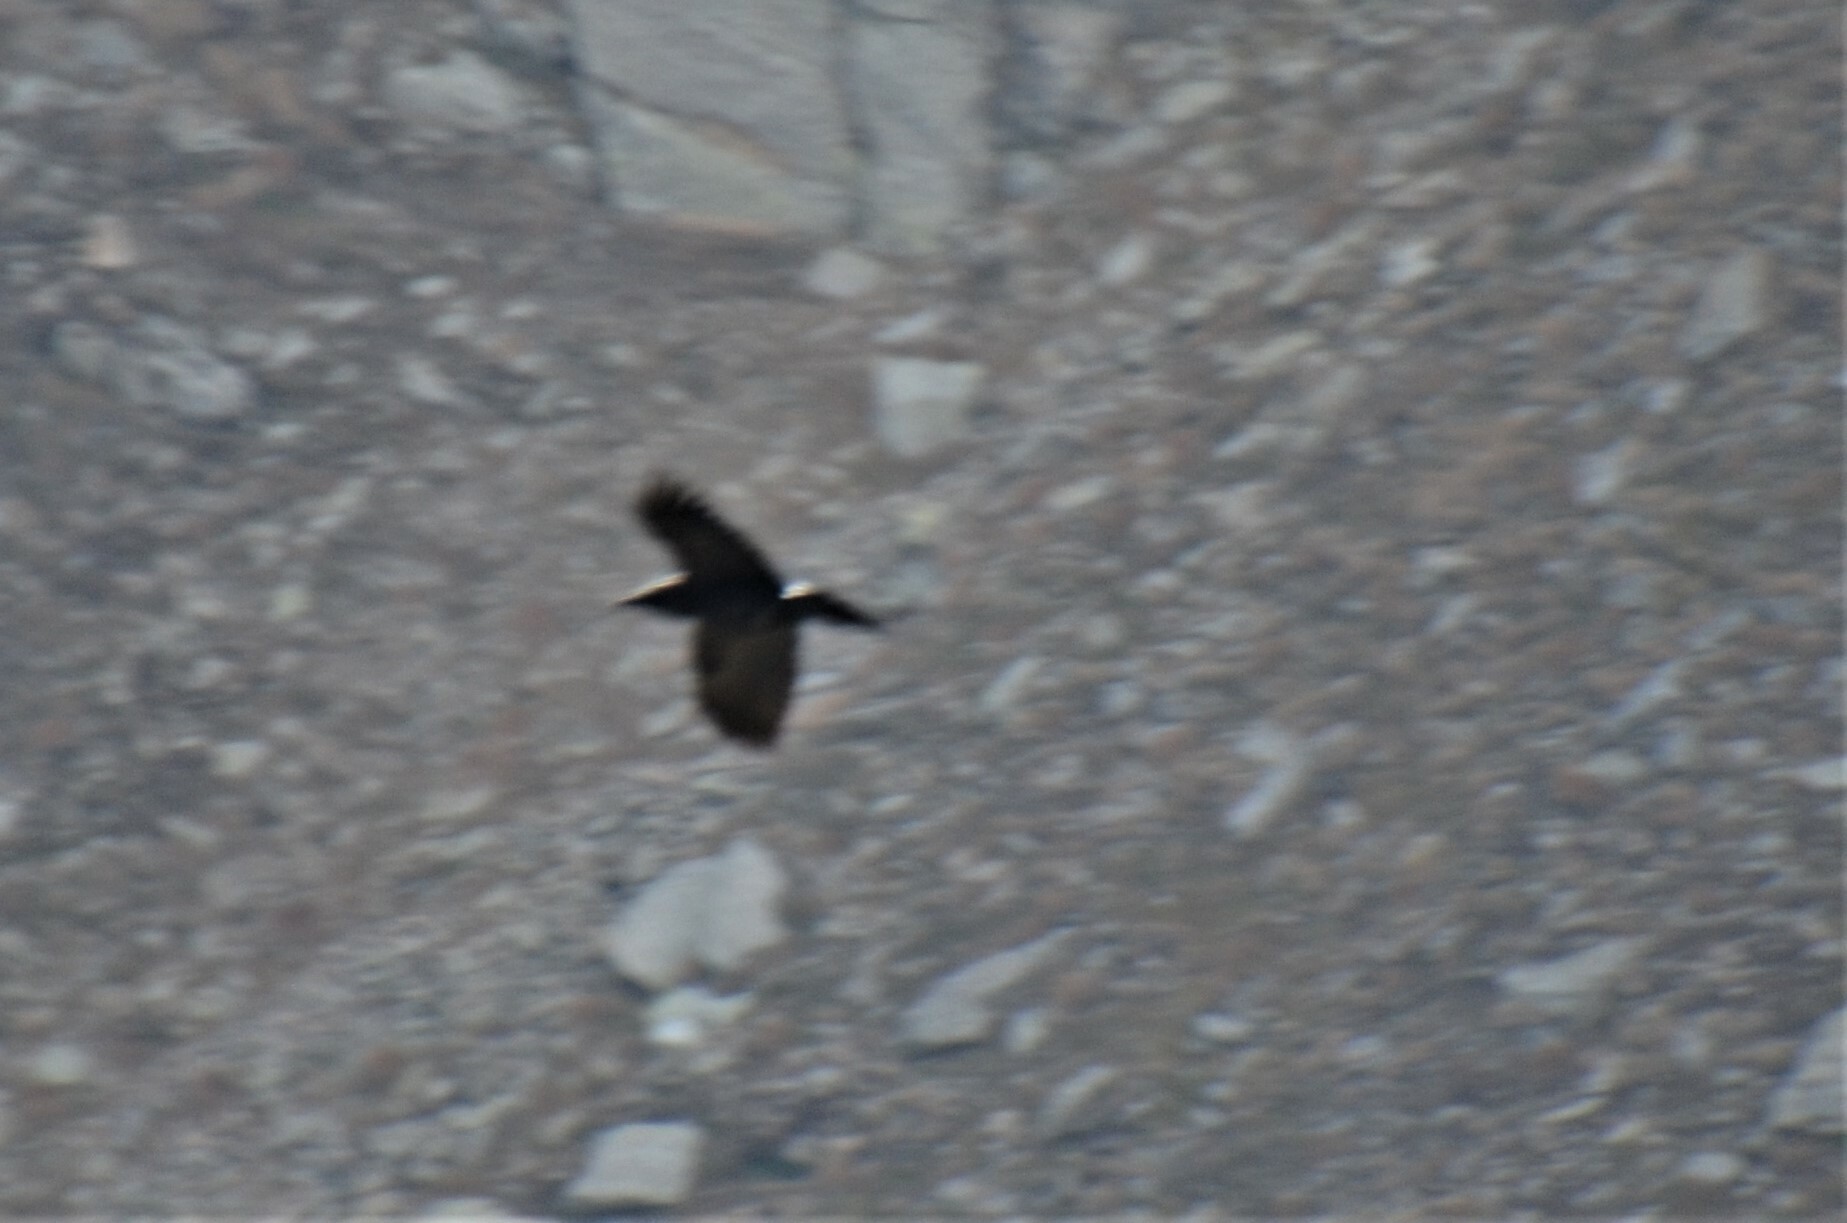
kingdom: Animalia
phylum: Chordata
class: Aves
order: Passeriformes
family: Corvidae
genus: Corvus
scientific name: Corvus corax
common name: Common raven
